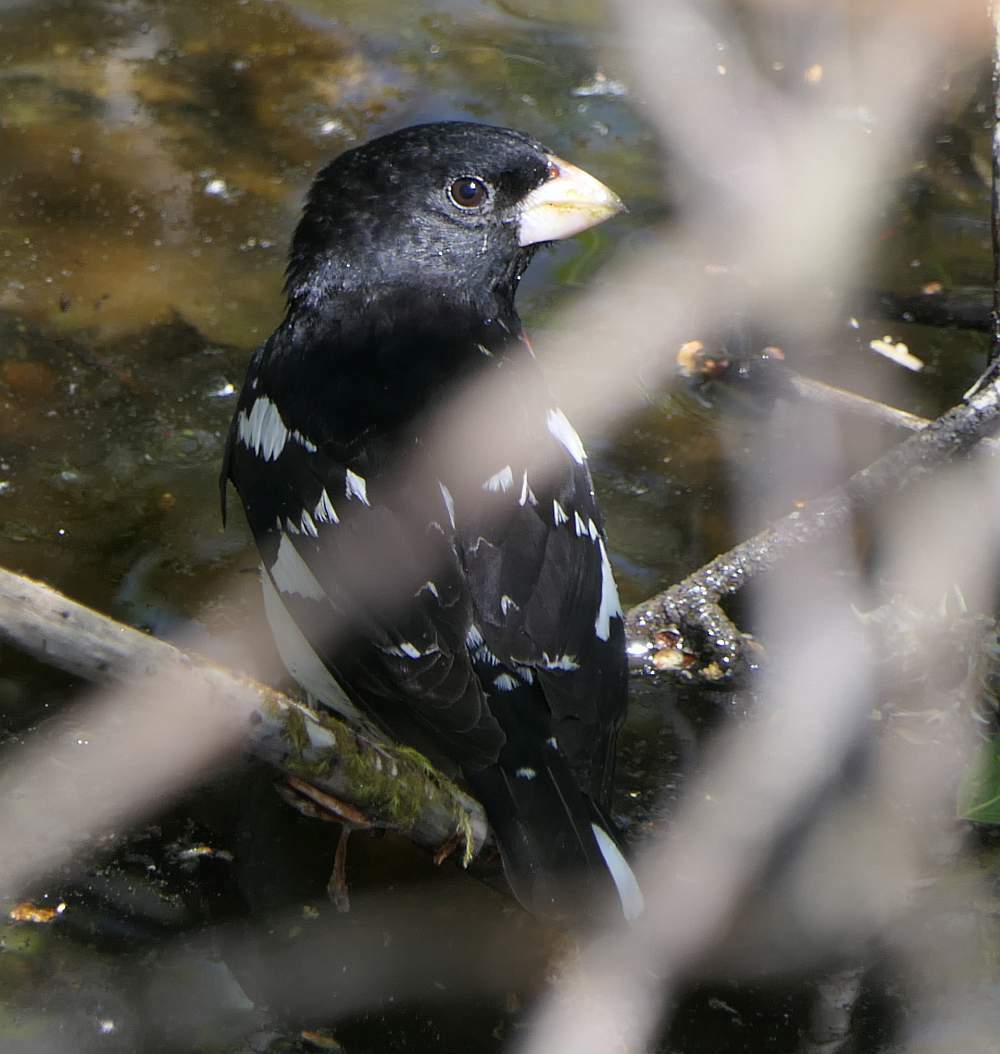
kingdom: Animalia
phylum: Chordata
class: Aves
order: Passeriformes
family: Cardinalidae
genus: Pheucticus
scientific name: Pheucticus ludovicianus
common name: Rose-breasted grosbeak
